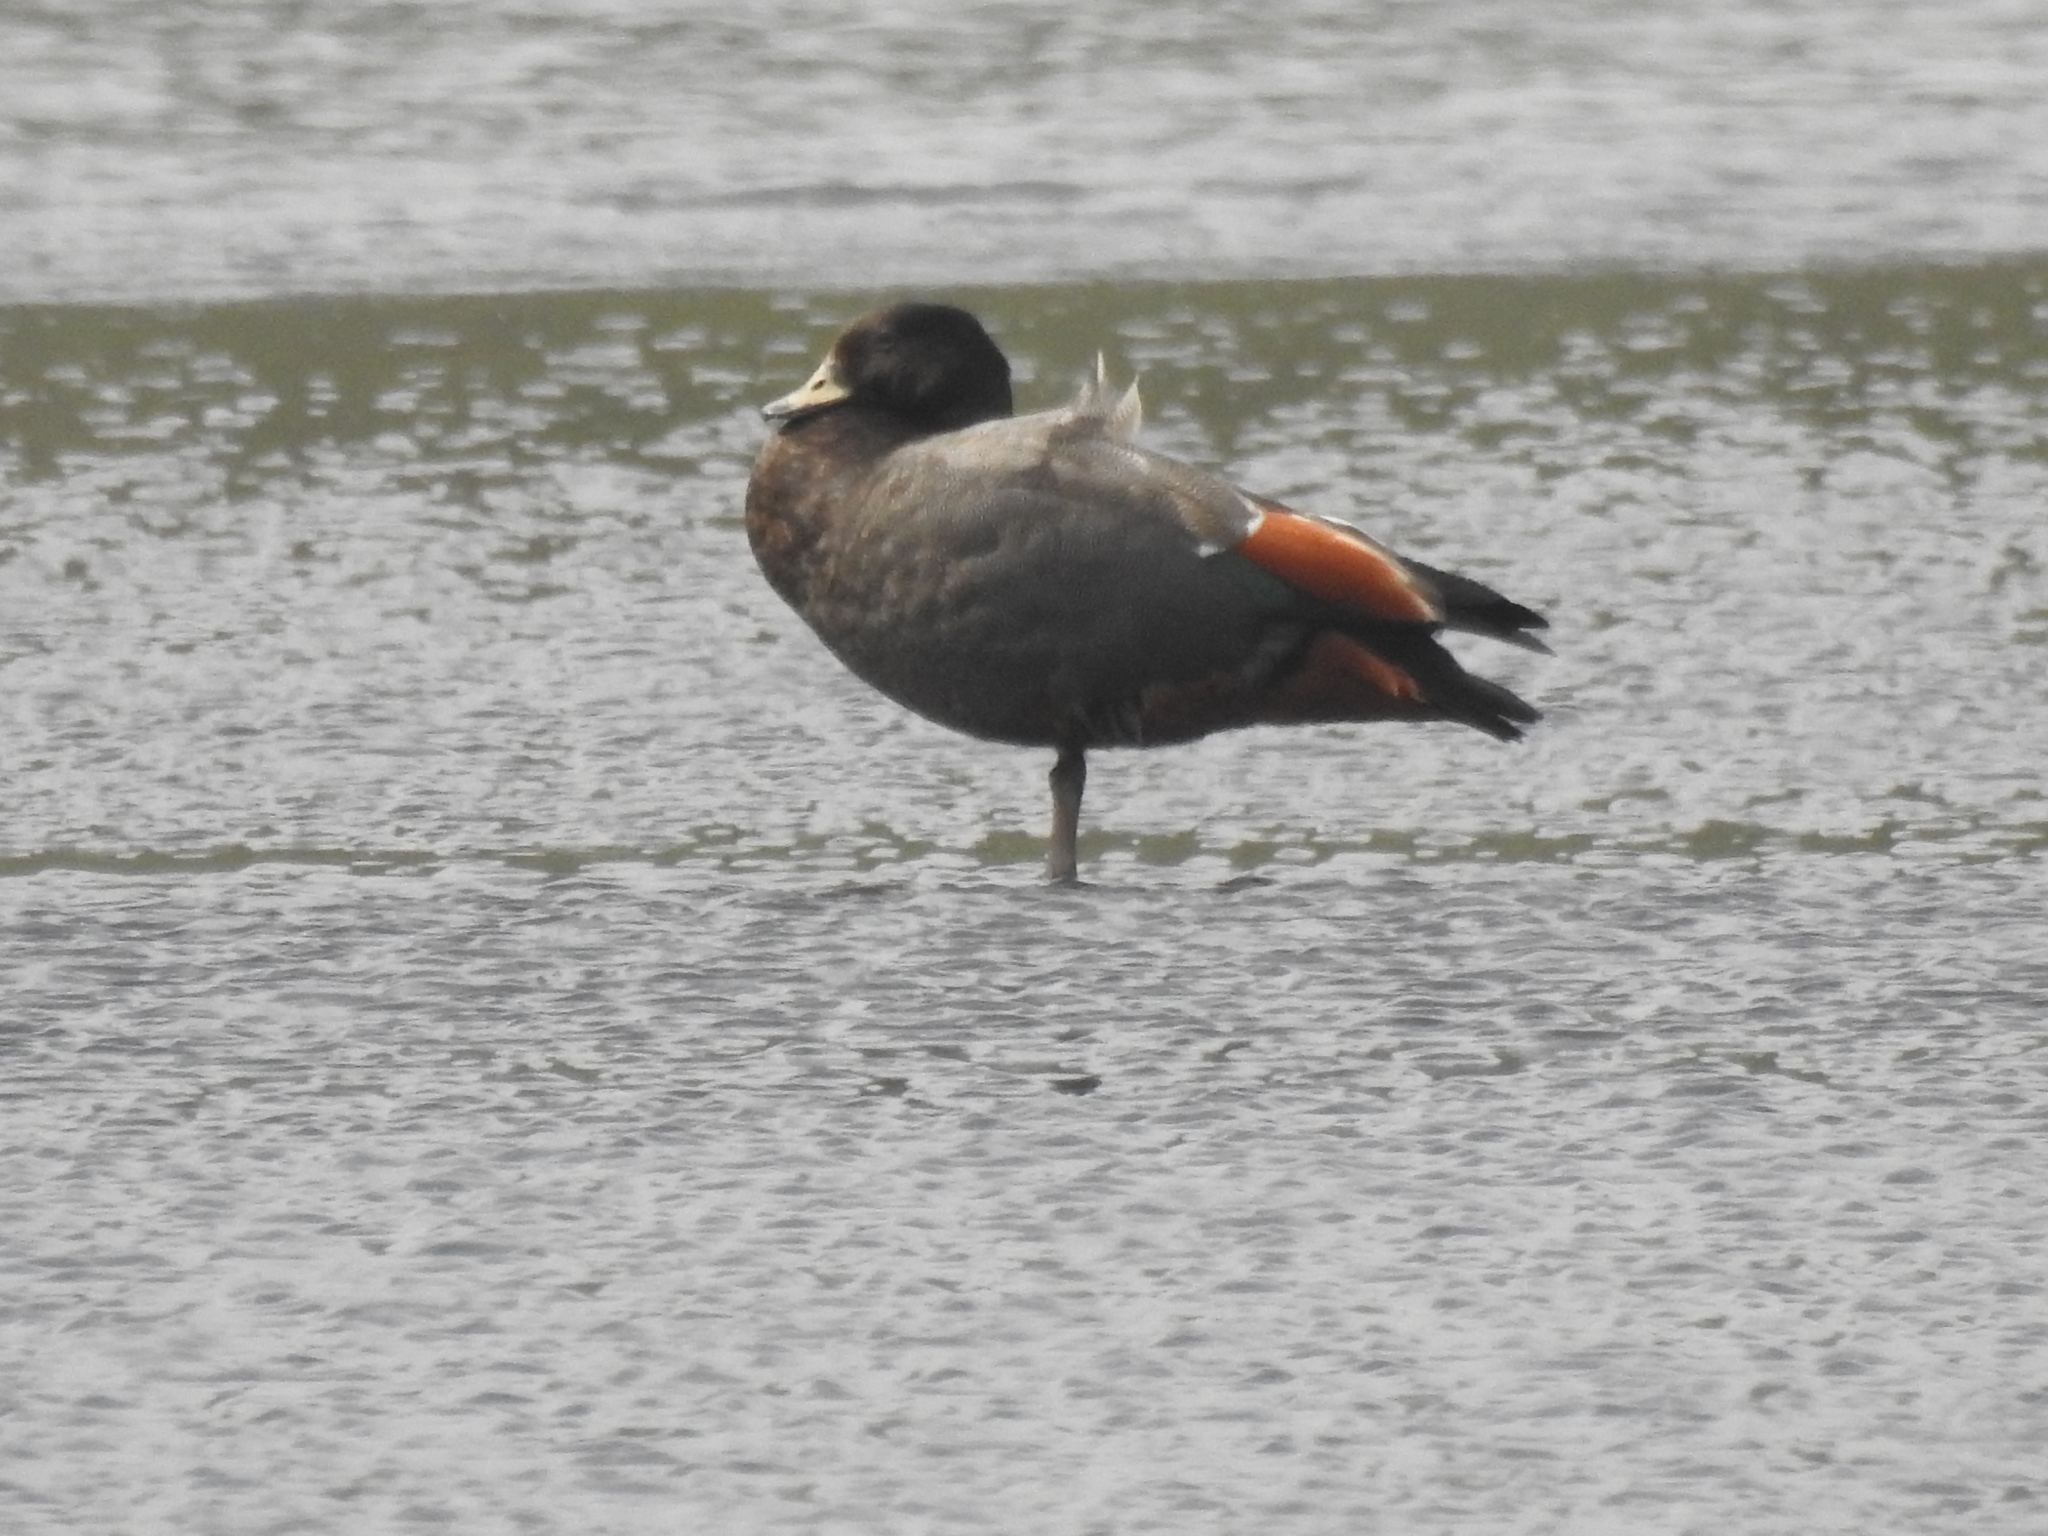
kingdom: Animalia
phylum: Chordata
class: Aves
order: Anseriformes
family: Anatidae
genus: Tadorna
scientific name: Tadorna variegata
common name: Paradise shelduck
